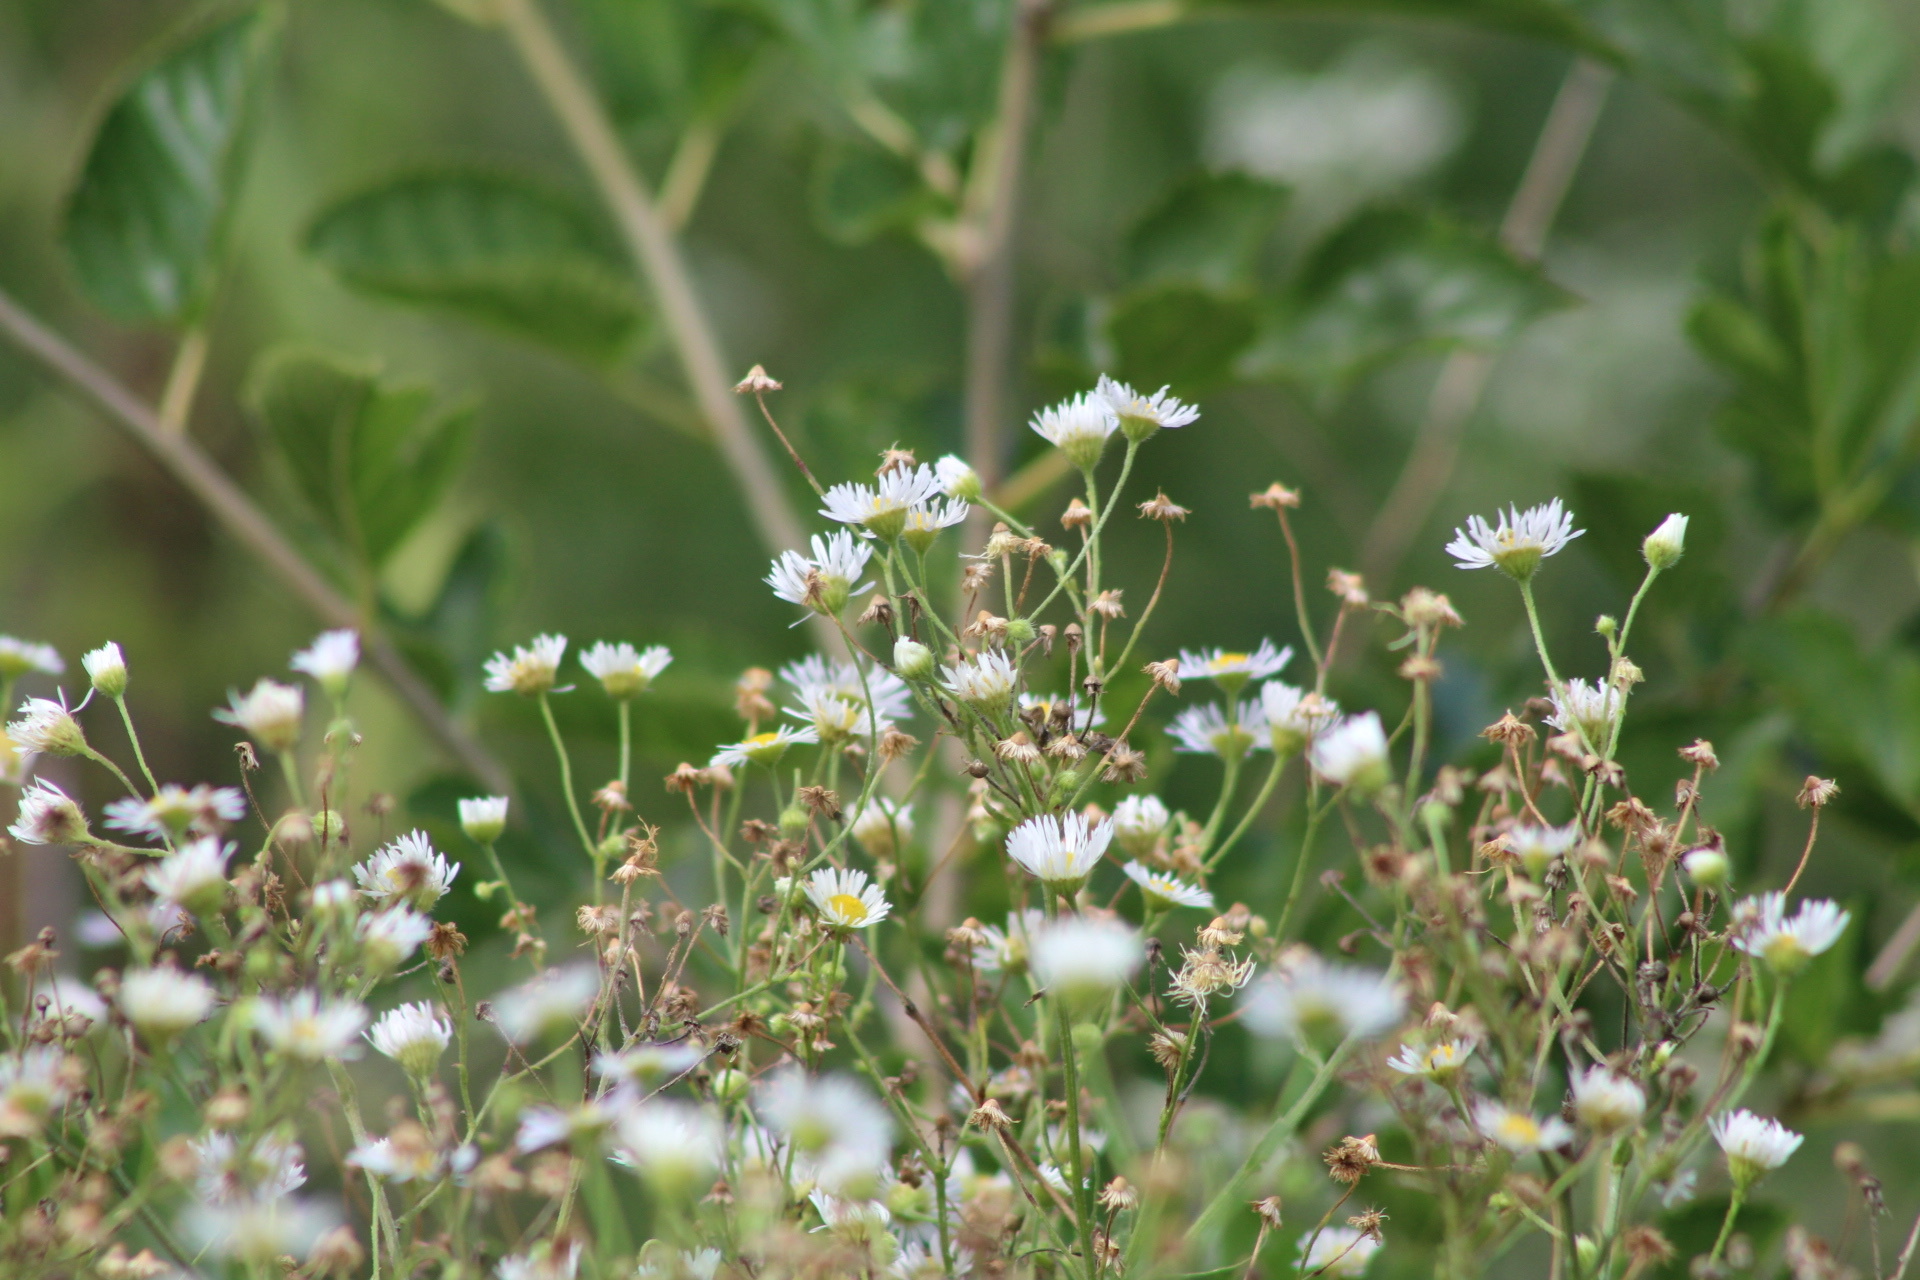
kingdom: Plantae
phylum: Tracheophyta
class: Magnoliopsida
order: Asterales
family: Asteraceae
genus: Erigeron
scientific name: Erigeron strigosus
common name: Common eastern fleabane
